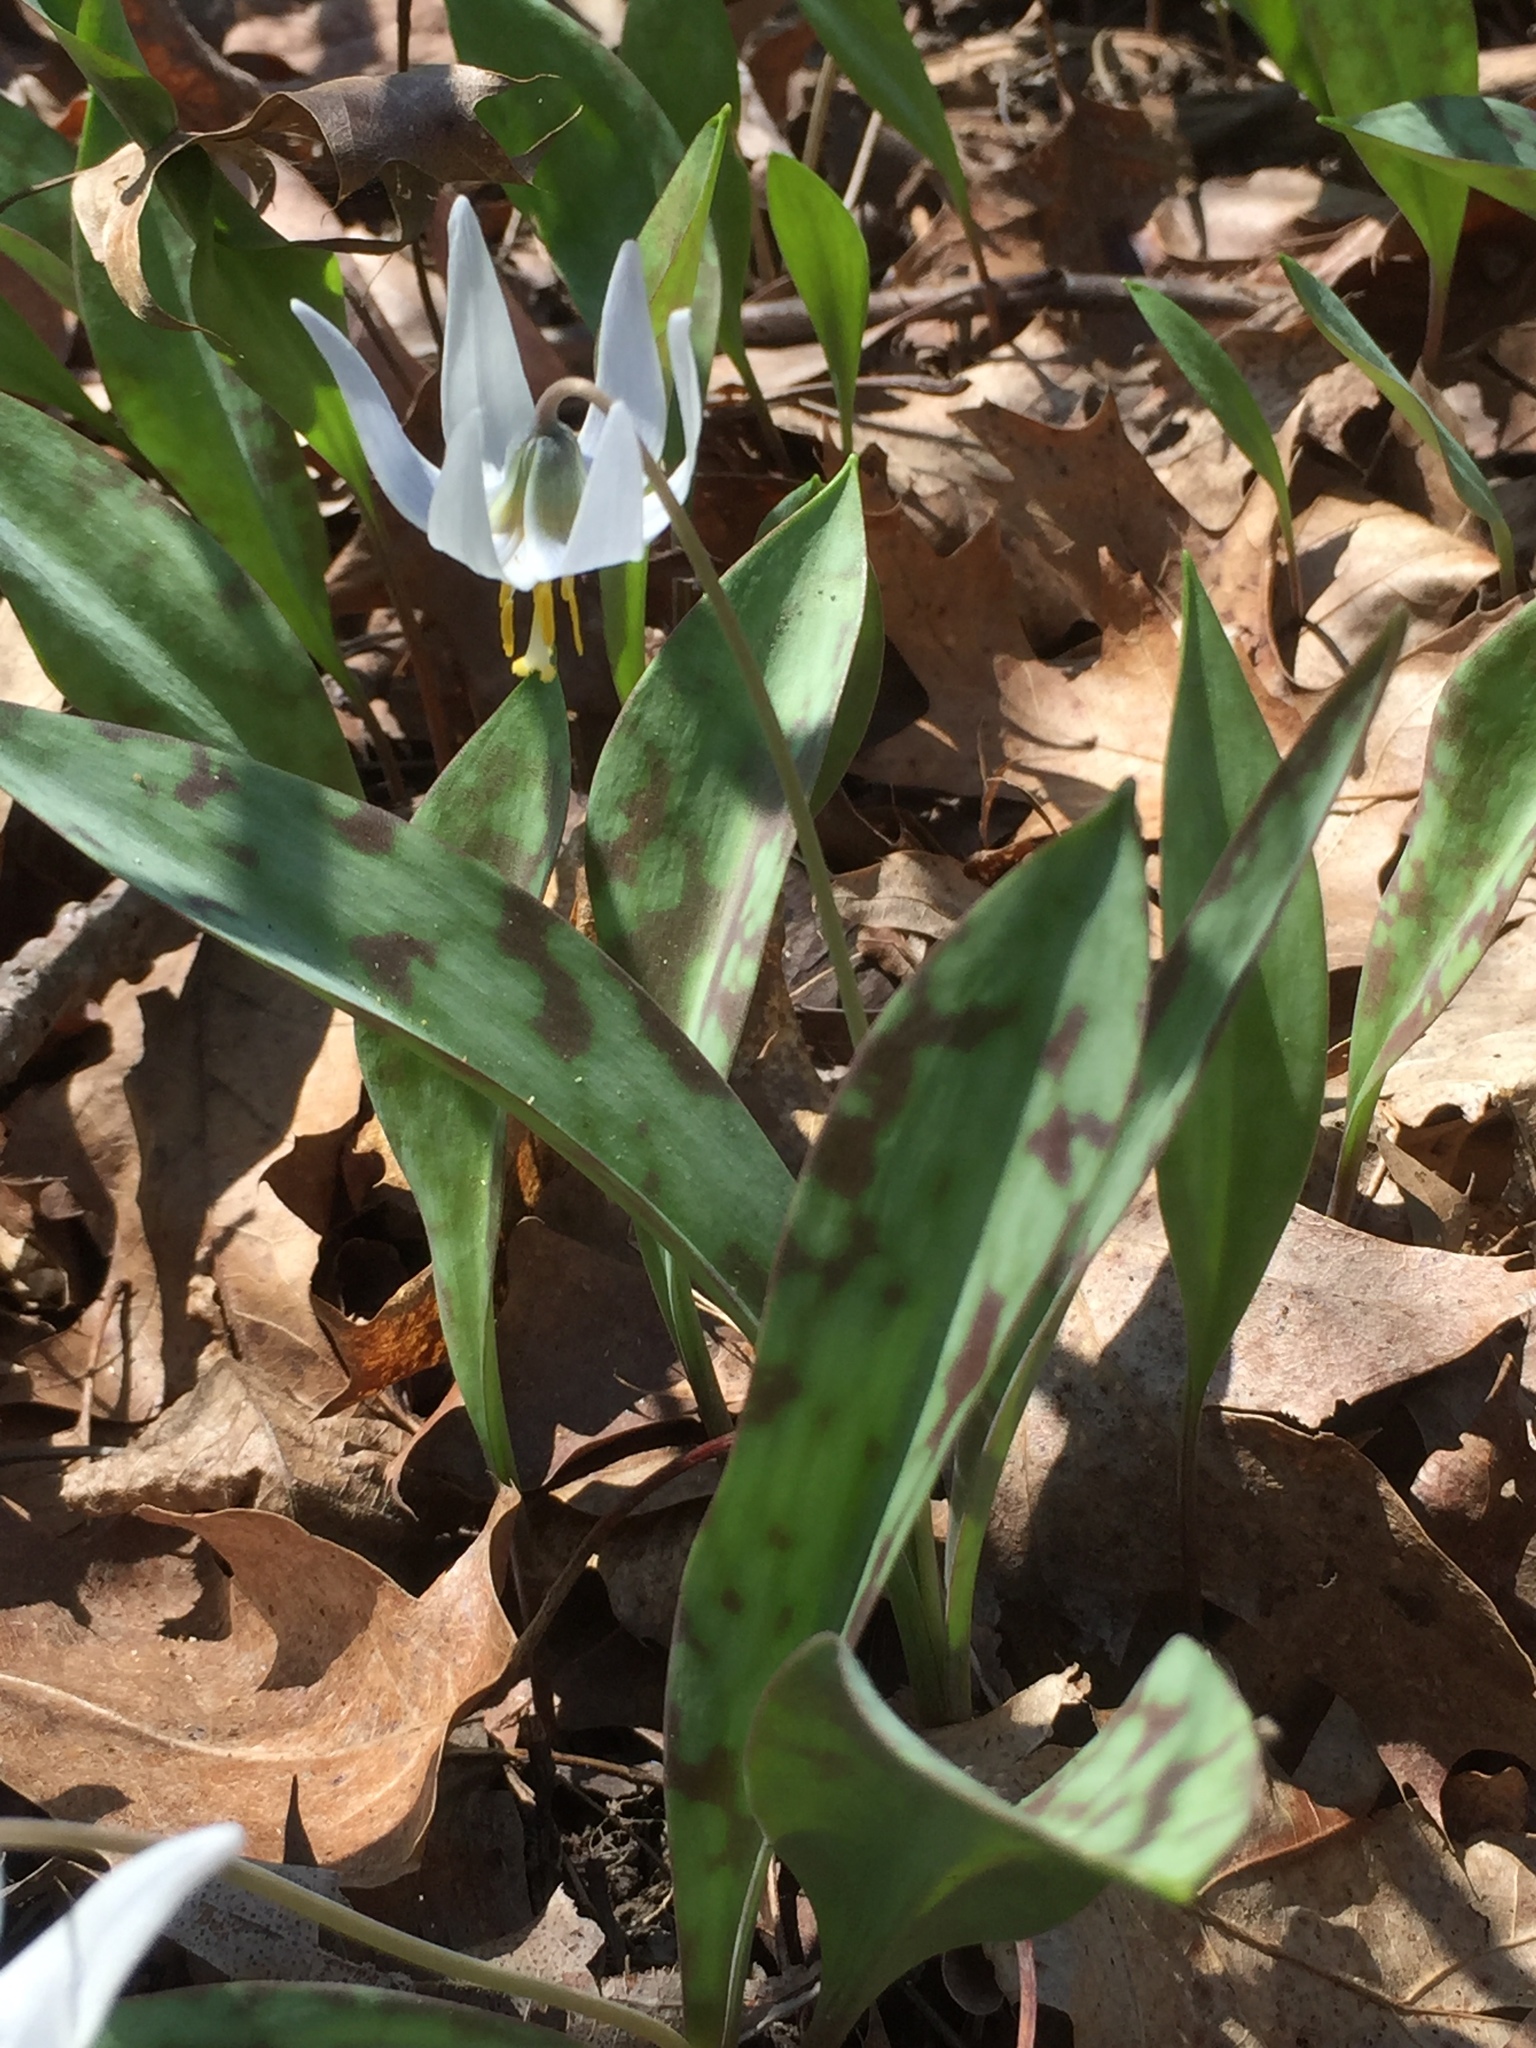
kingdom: Plantae
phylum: Tracheophyta
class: Liliopsida
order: Liliales
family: Liliaceae
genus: Erythronium
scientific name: Erythronium albidum
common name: White trout-lily
